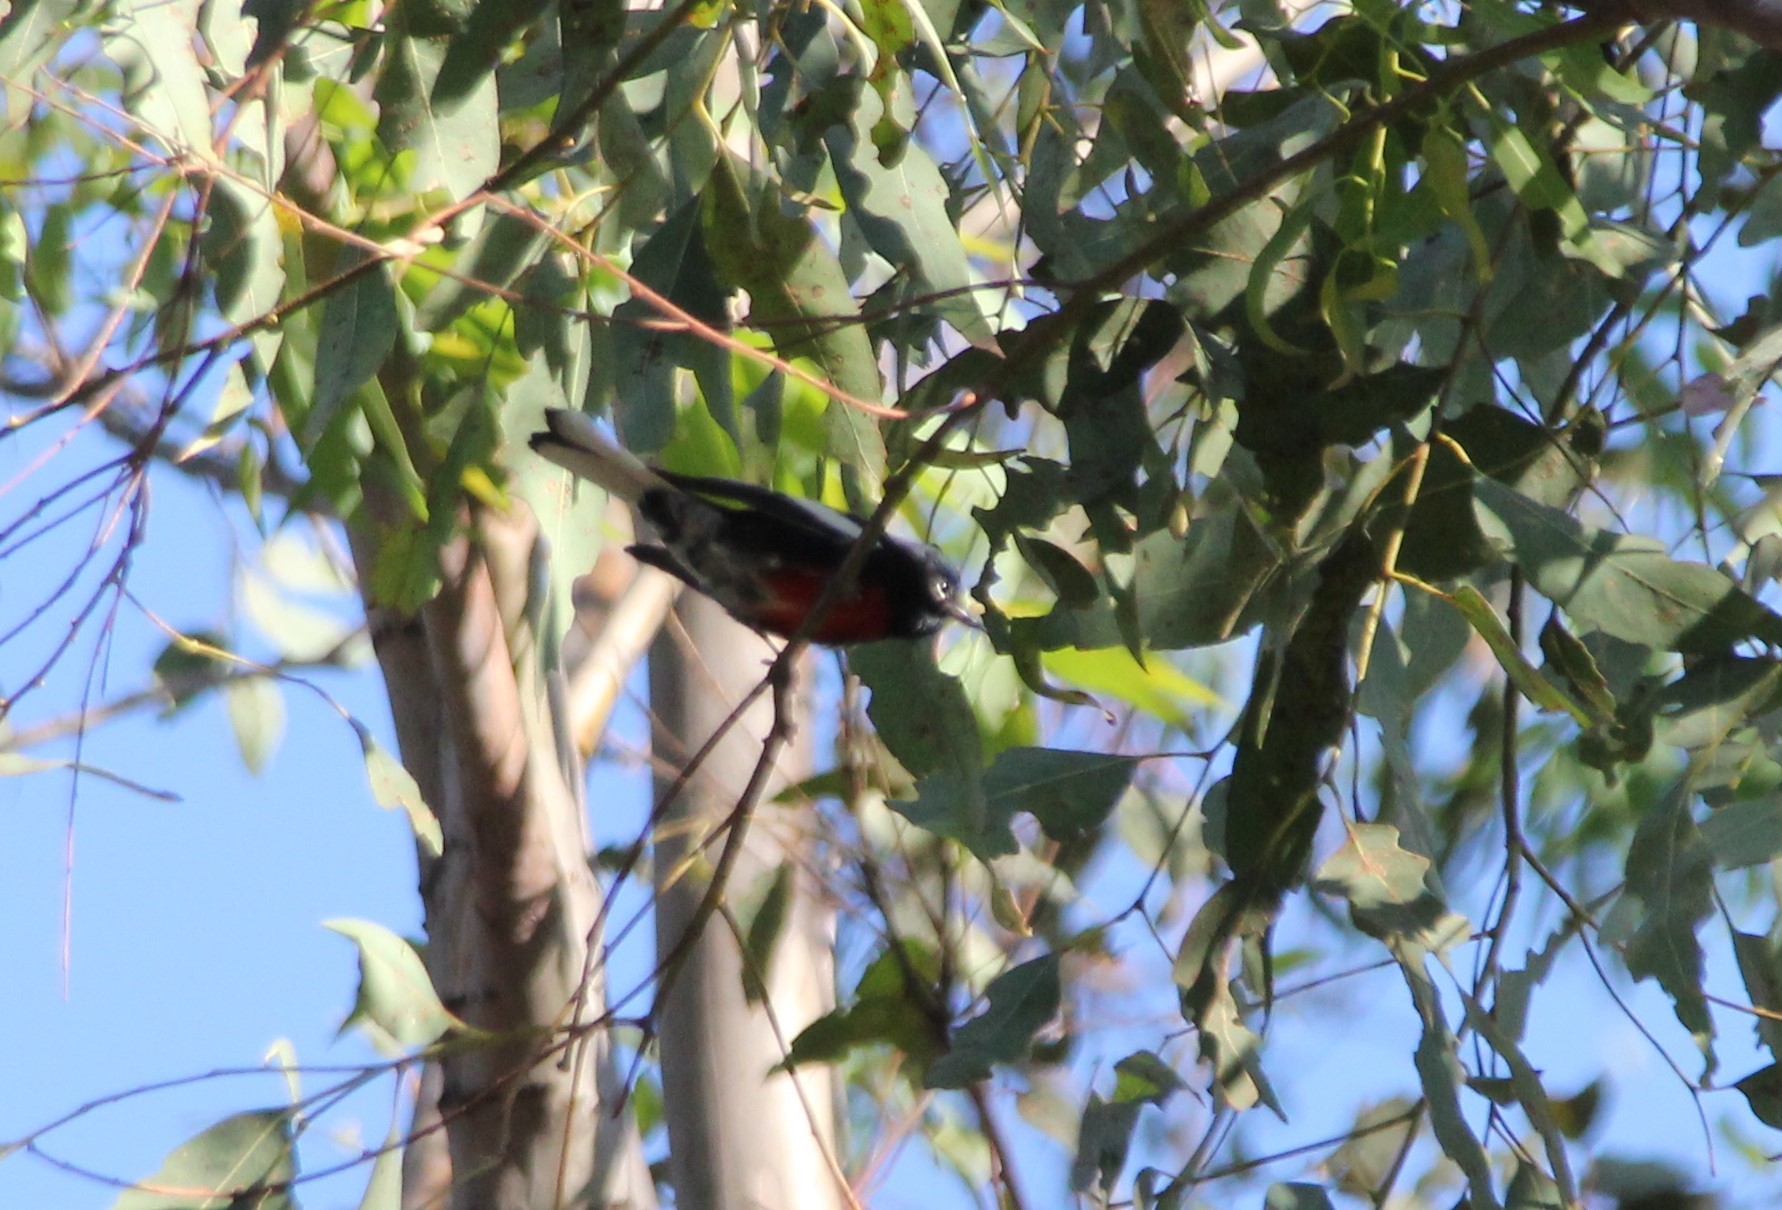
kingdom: Animalia
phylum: Chordata
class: Aves
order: Passeriformes
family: Parulidae
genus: Myioborus
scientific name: Myioborus pictus
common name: Painted whitestart
